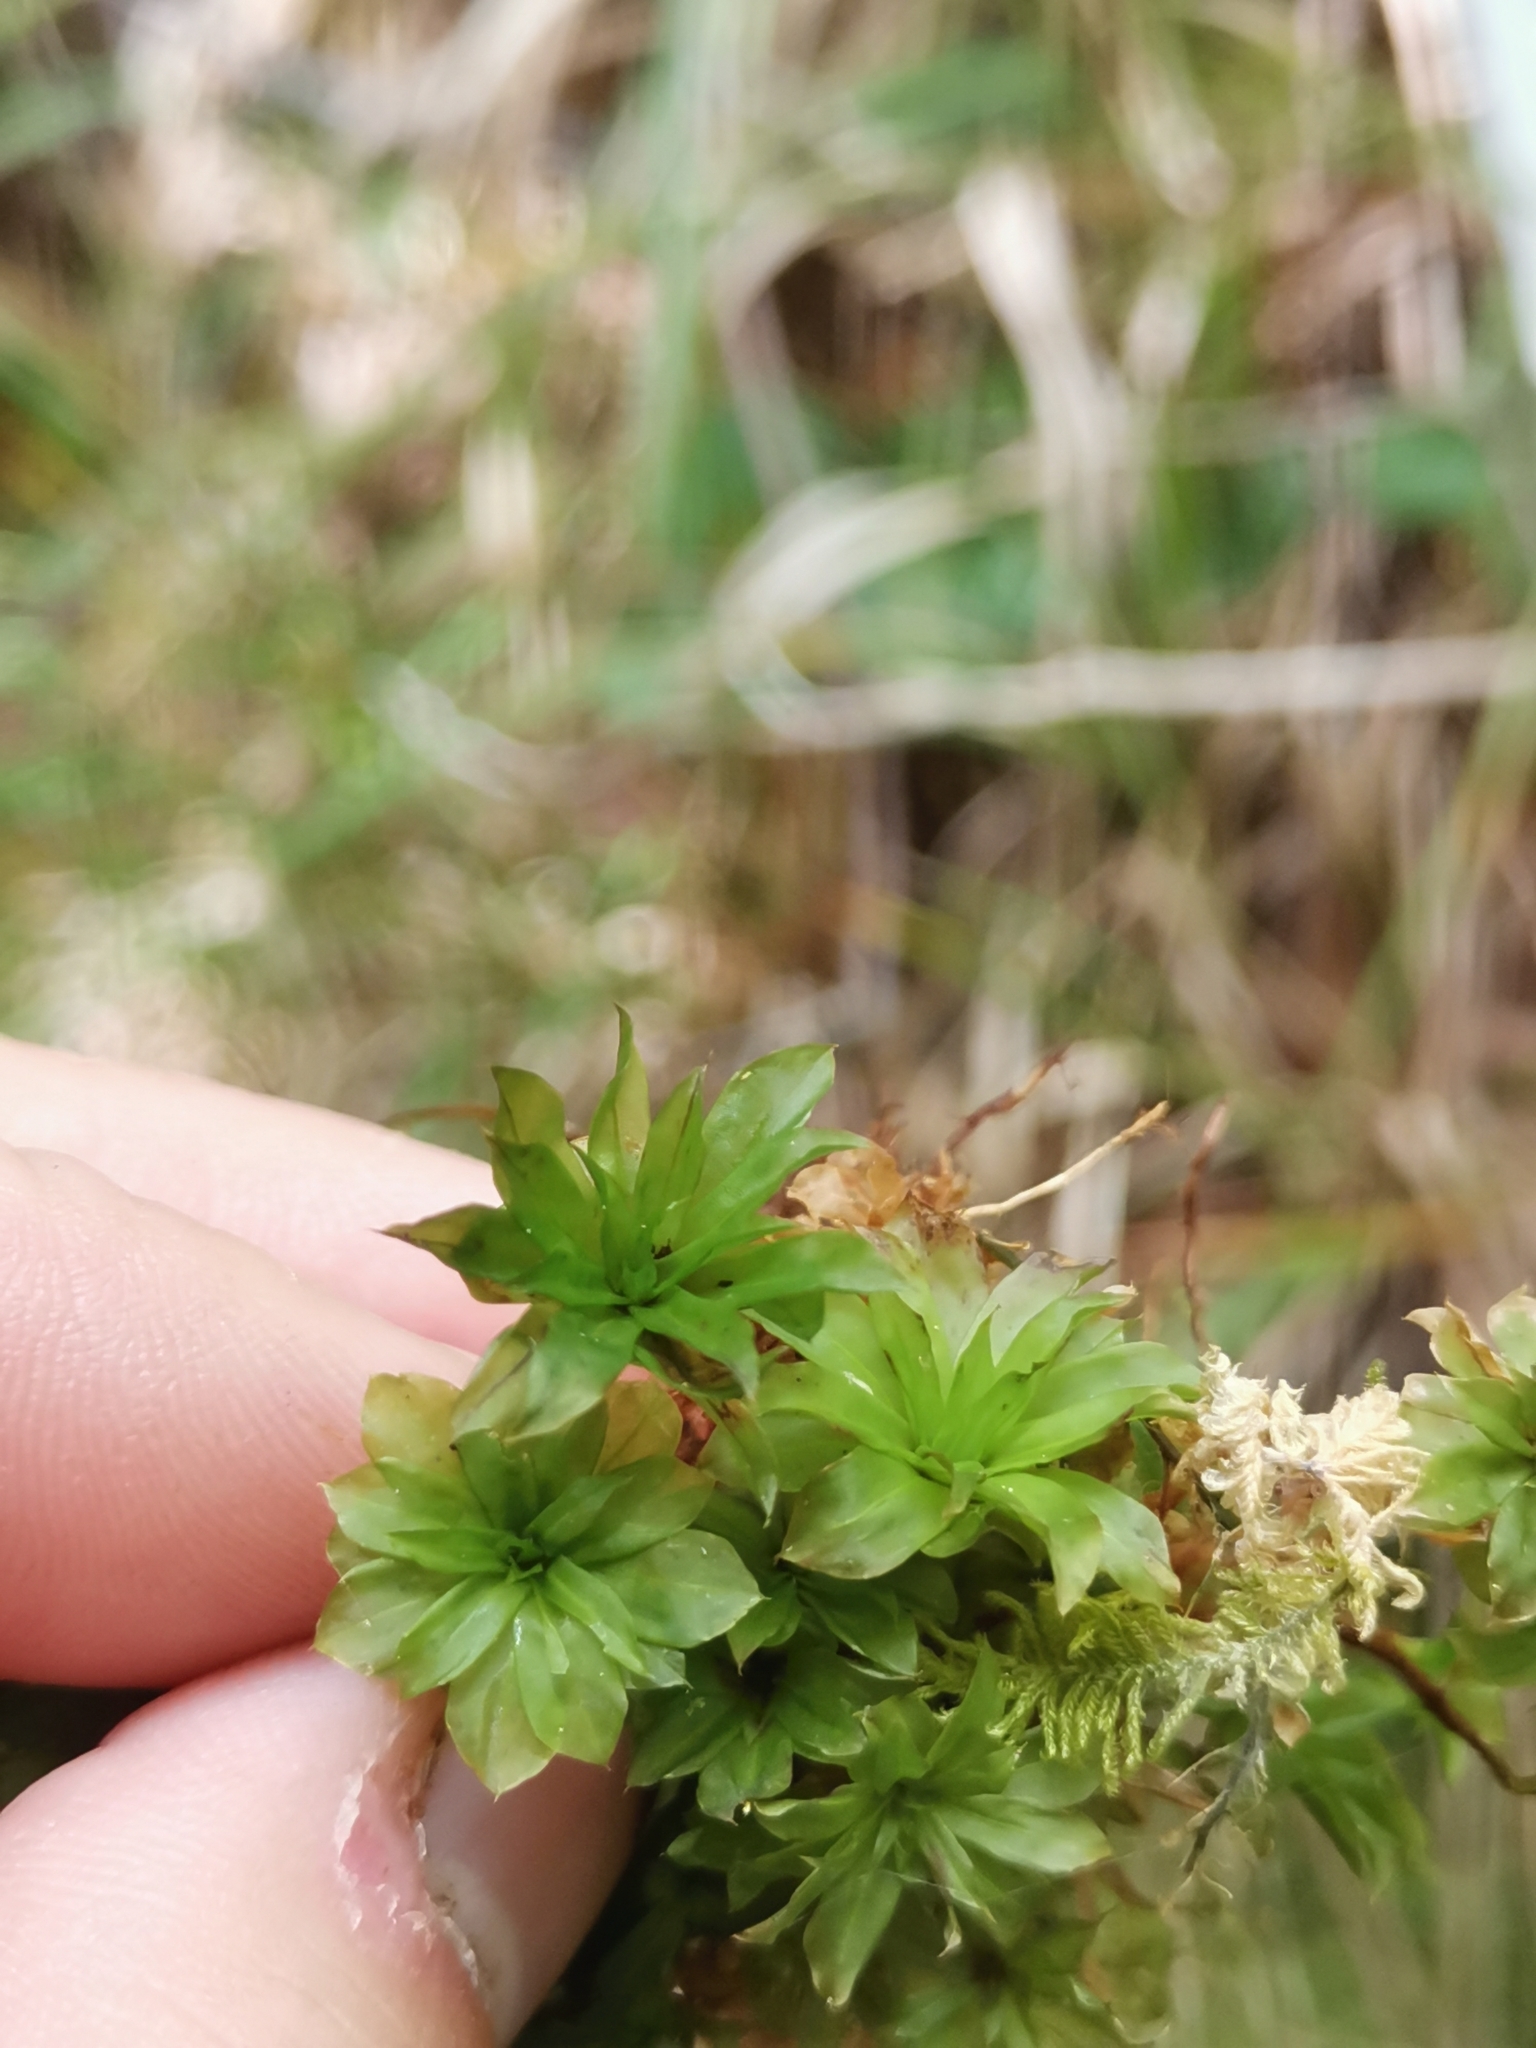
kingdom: Plantae
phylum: Bryophyta
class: Bryopsida
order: Bryales
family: Bryaceae
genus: Rhodobryum
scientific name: Rhodobryum roseum
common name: Rose-moss
